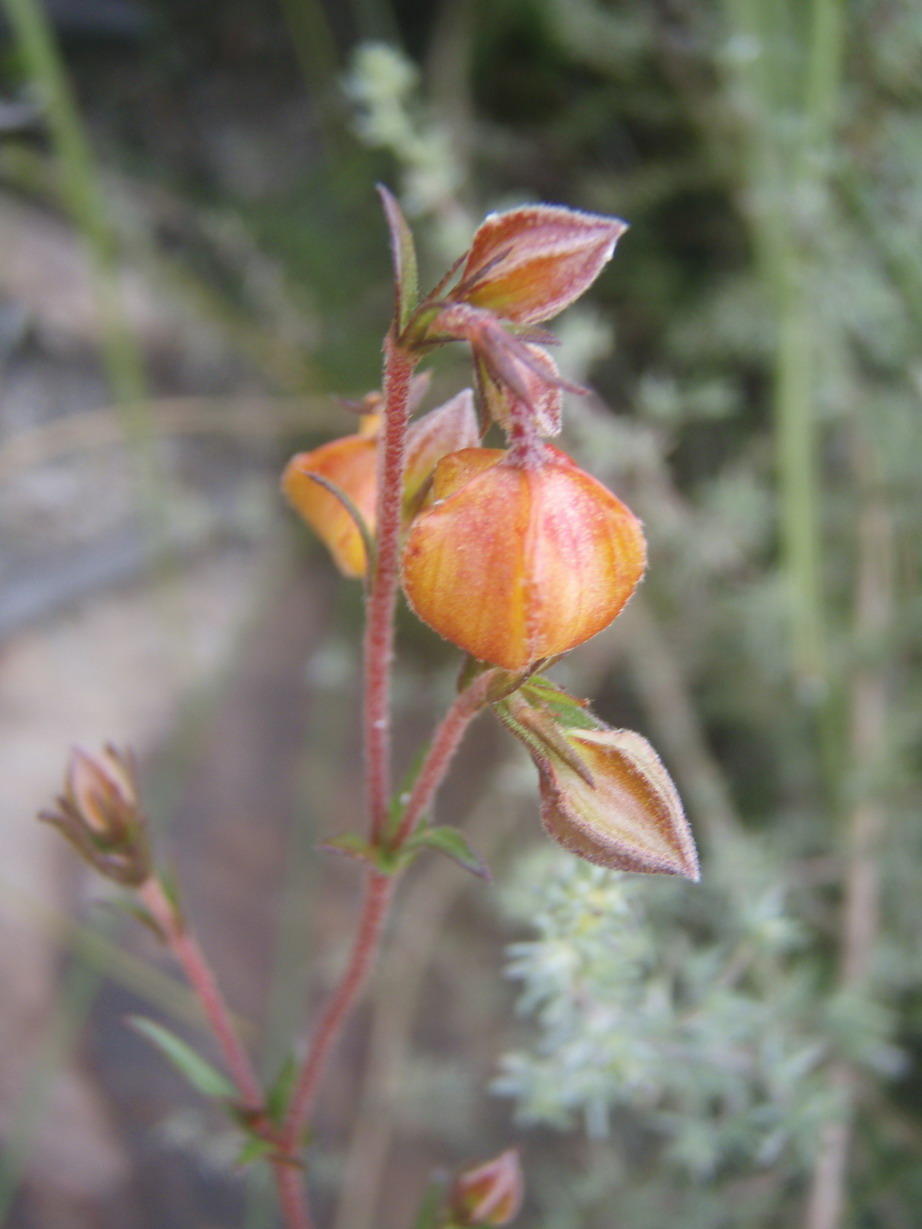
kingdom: Plantae
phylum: Tracheophyta
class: Magnoliopsida
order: Malvales
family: Malvaceae
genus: Hermannia
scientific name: Hermannia angularis
